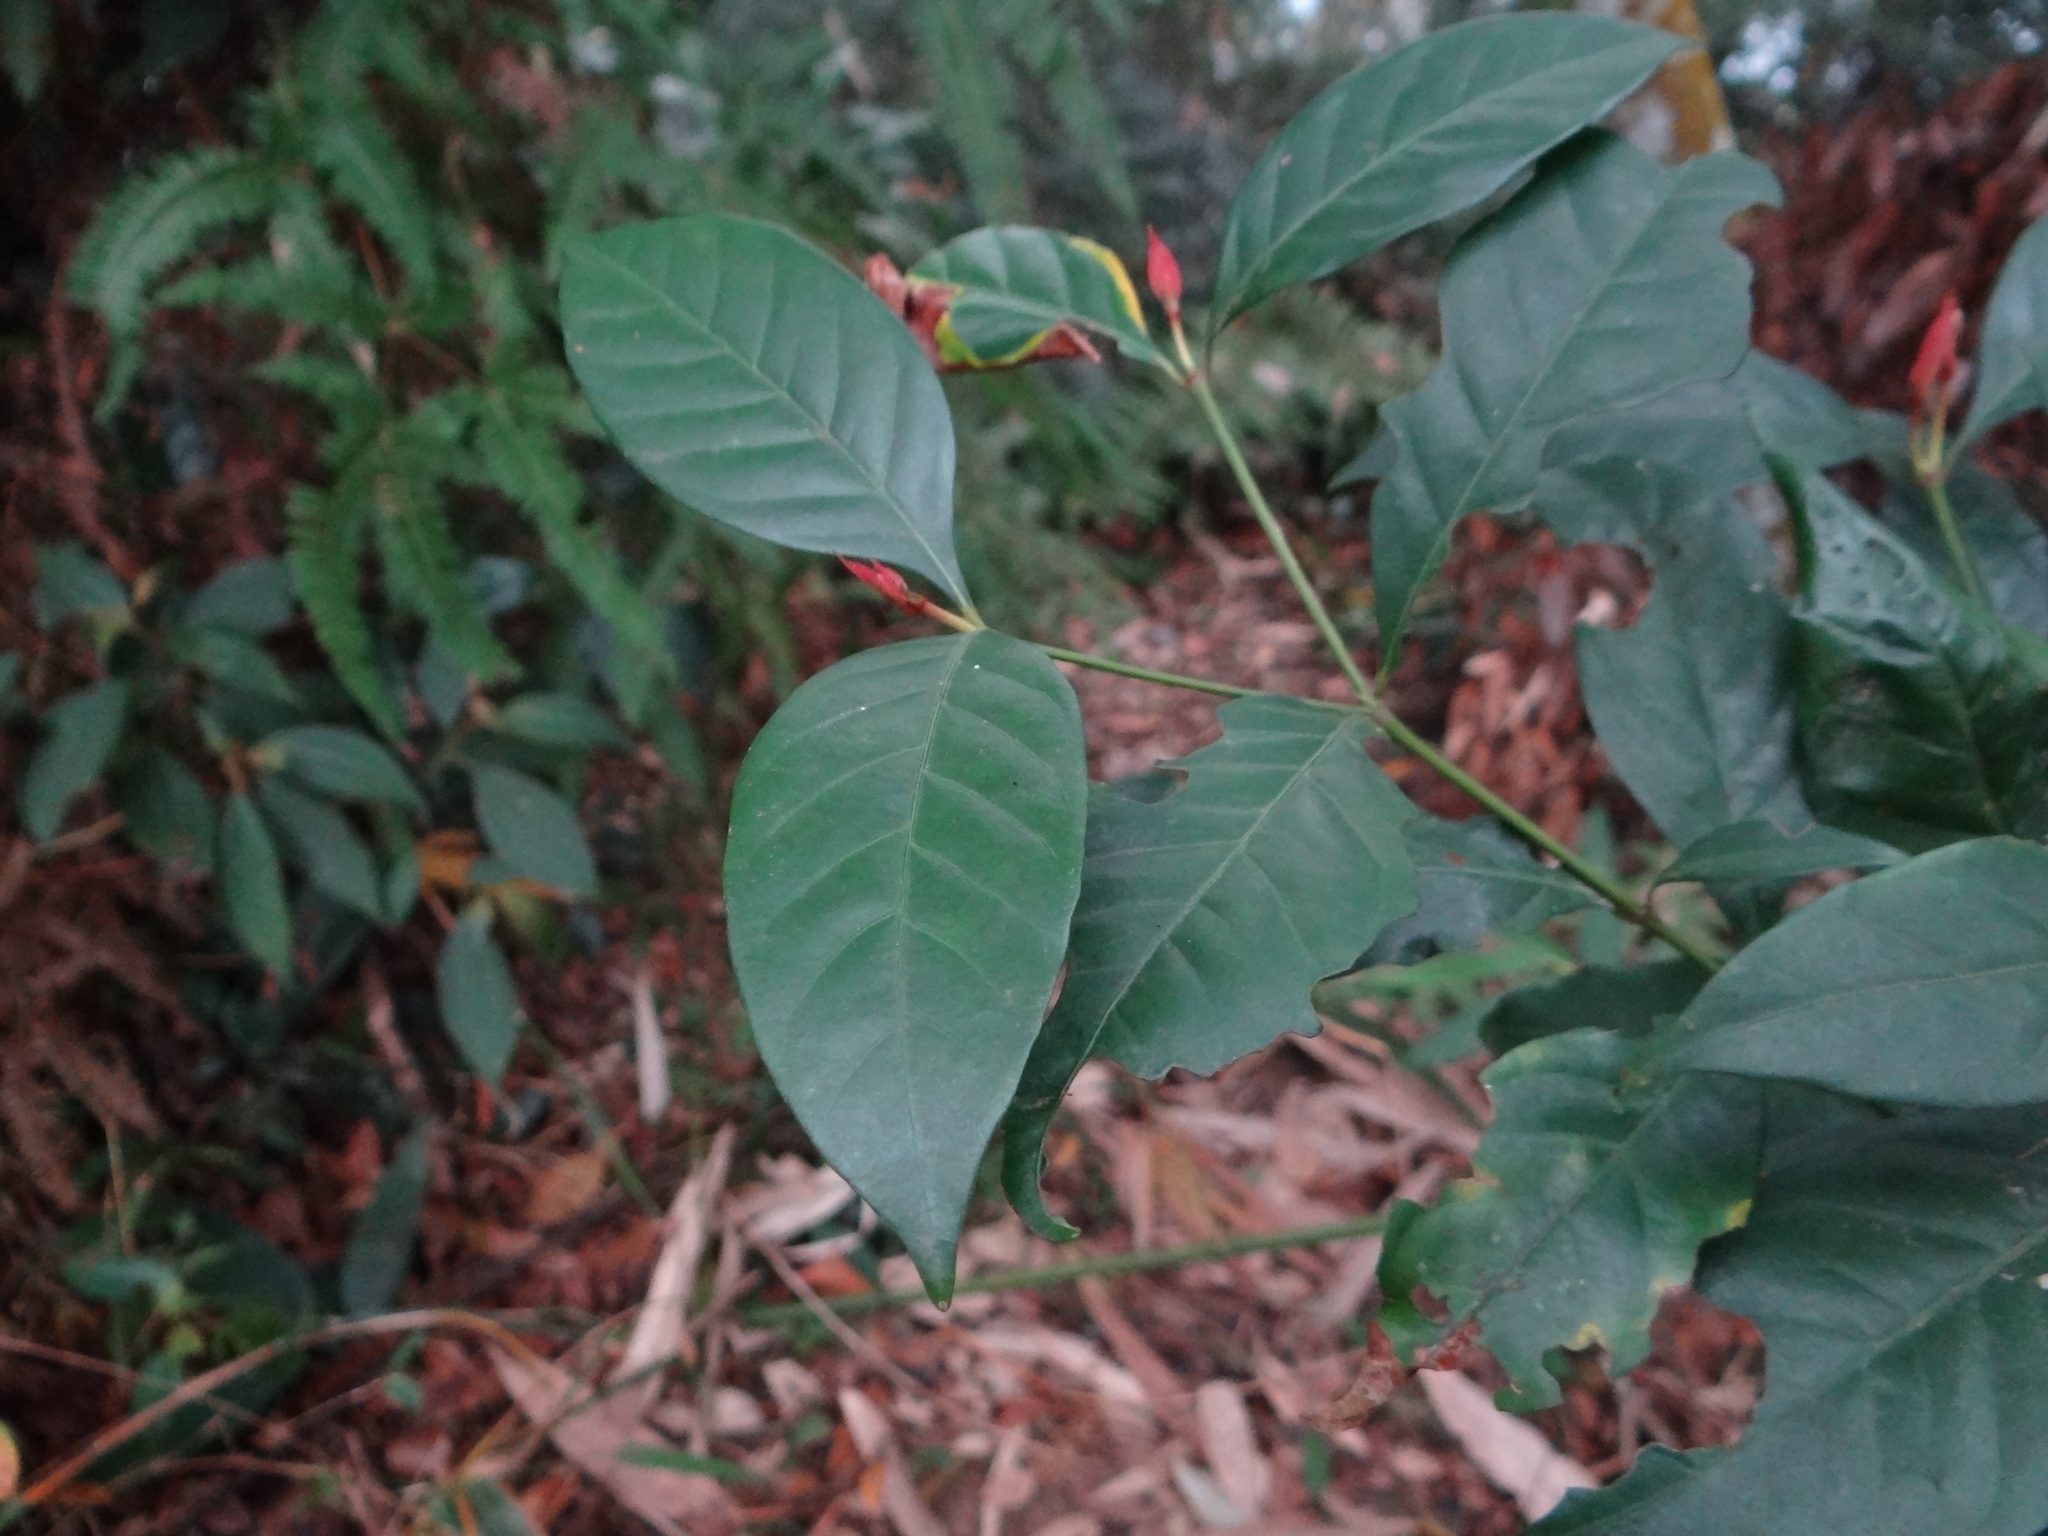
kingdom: Plantae
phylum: Tracheophyta
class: Magnoliopsida
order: Gentianales
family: Rubiaceae
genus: Aidia
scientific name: Aidia cochinchinensis
